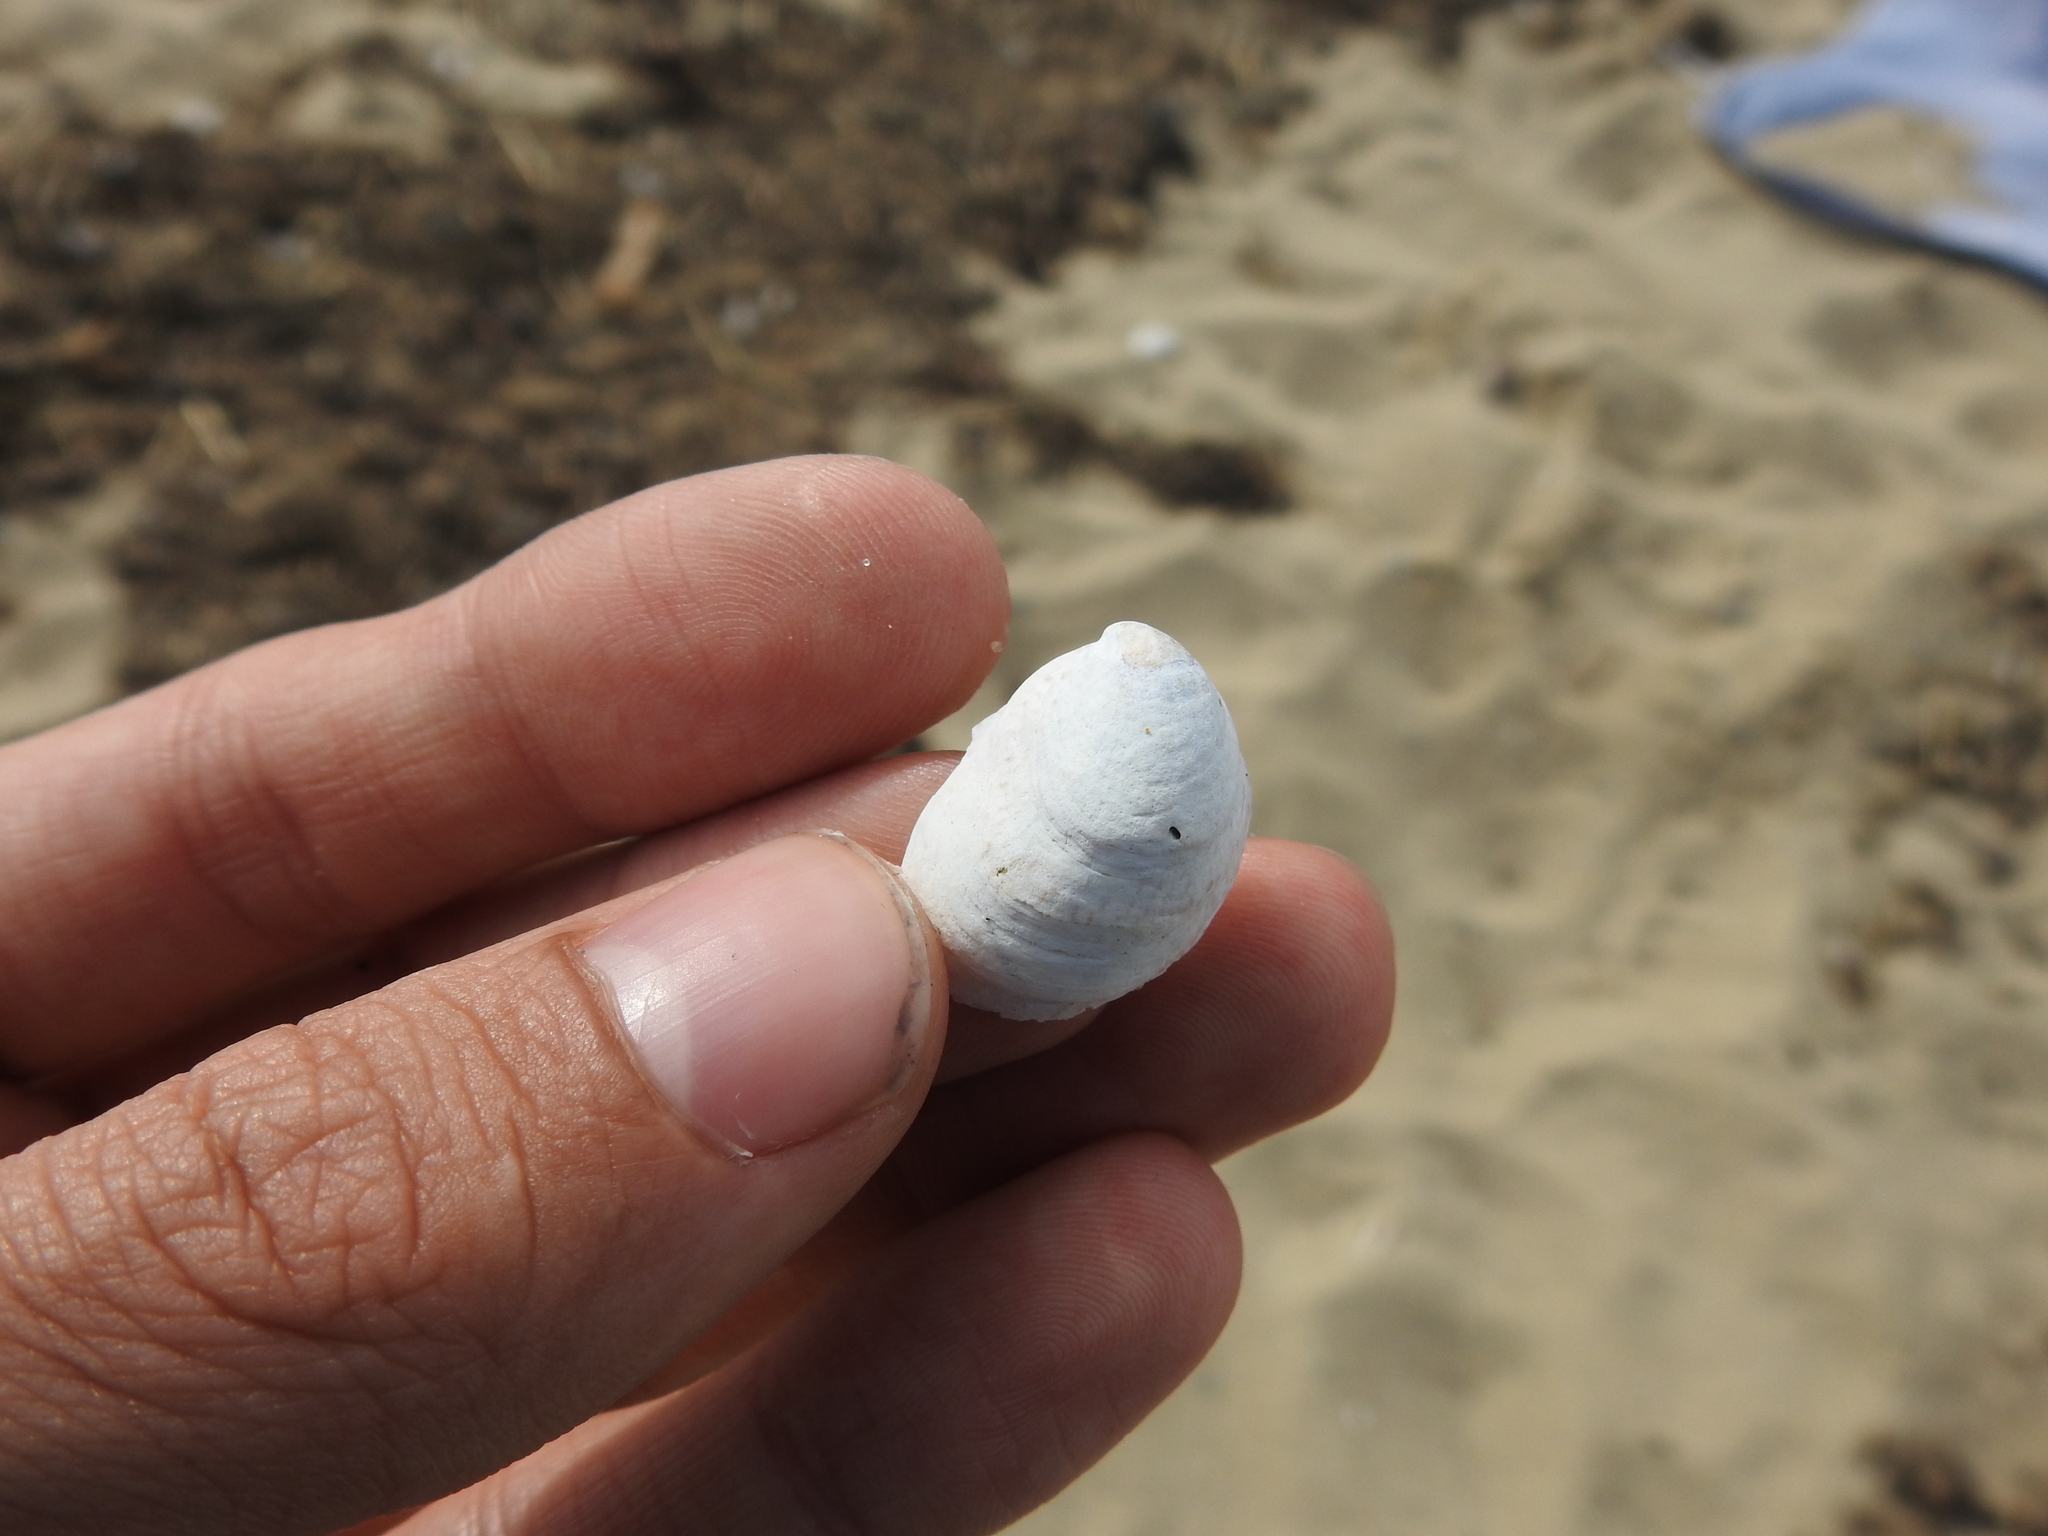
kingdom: Animalia
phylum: Mollusca
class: Gastropoda
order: Littorinimorpha
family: Calyptraeidae
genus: Crepidula
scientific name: Crepidula fornicata
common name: Slipper limpet
